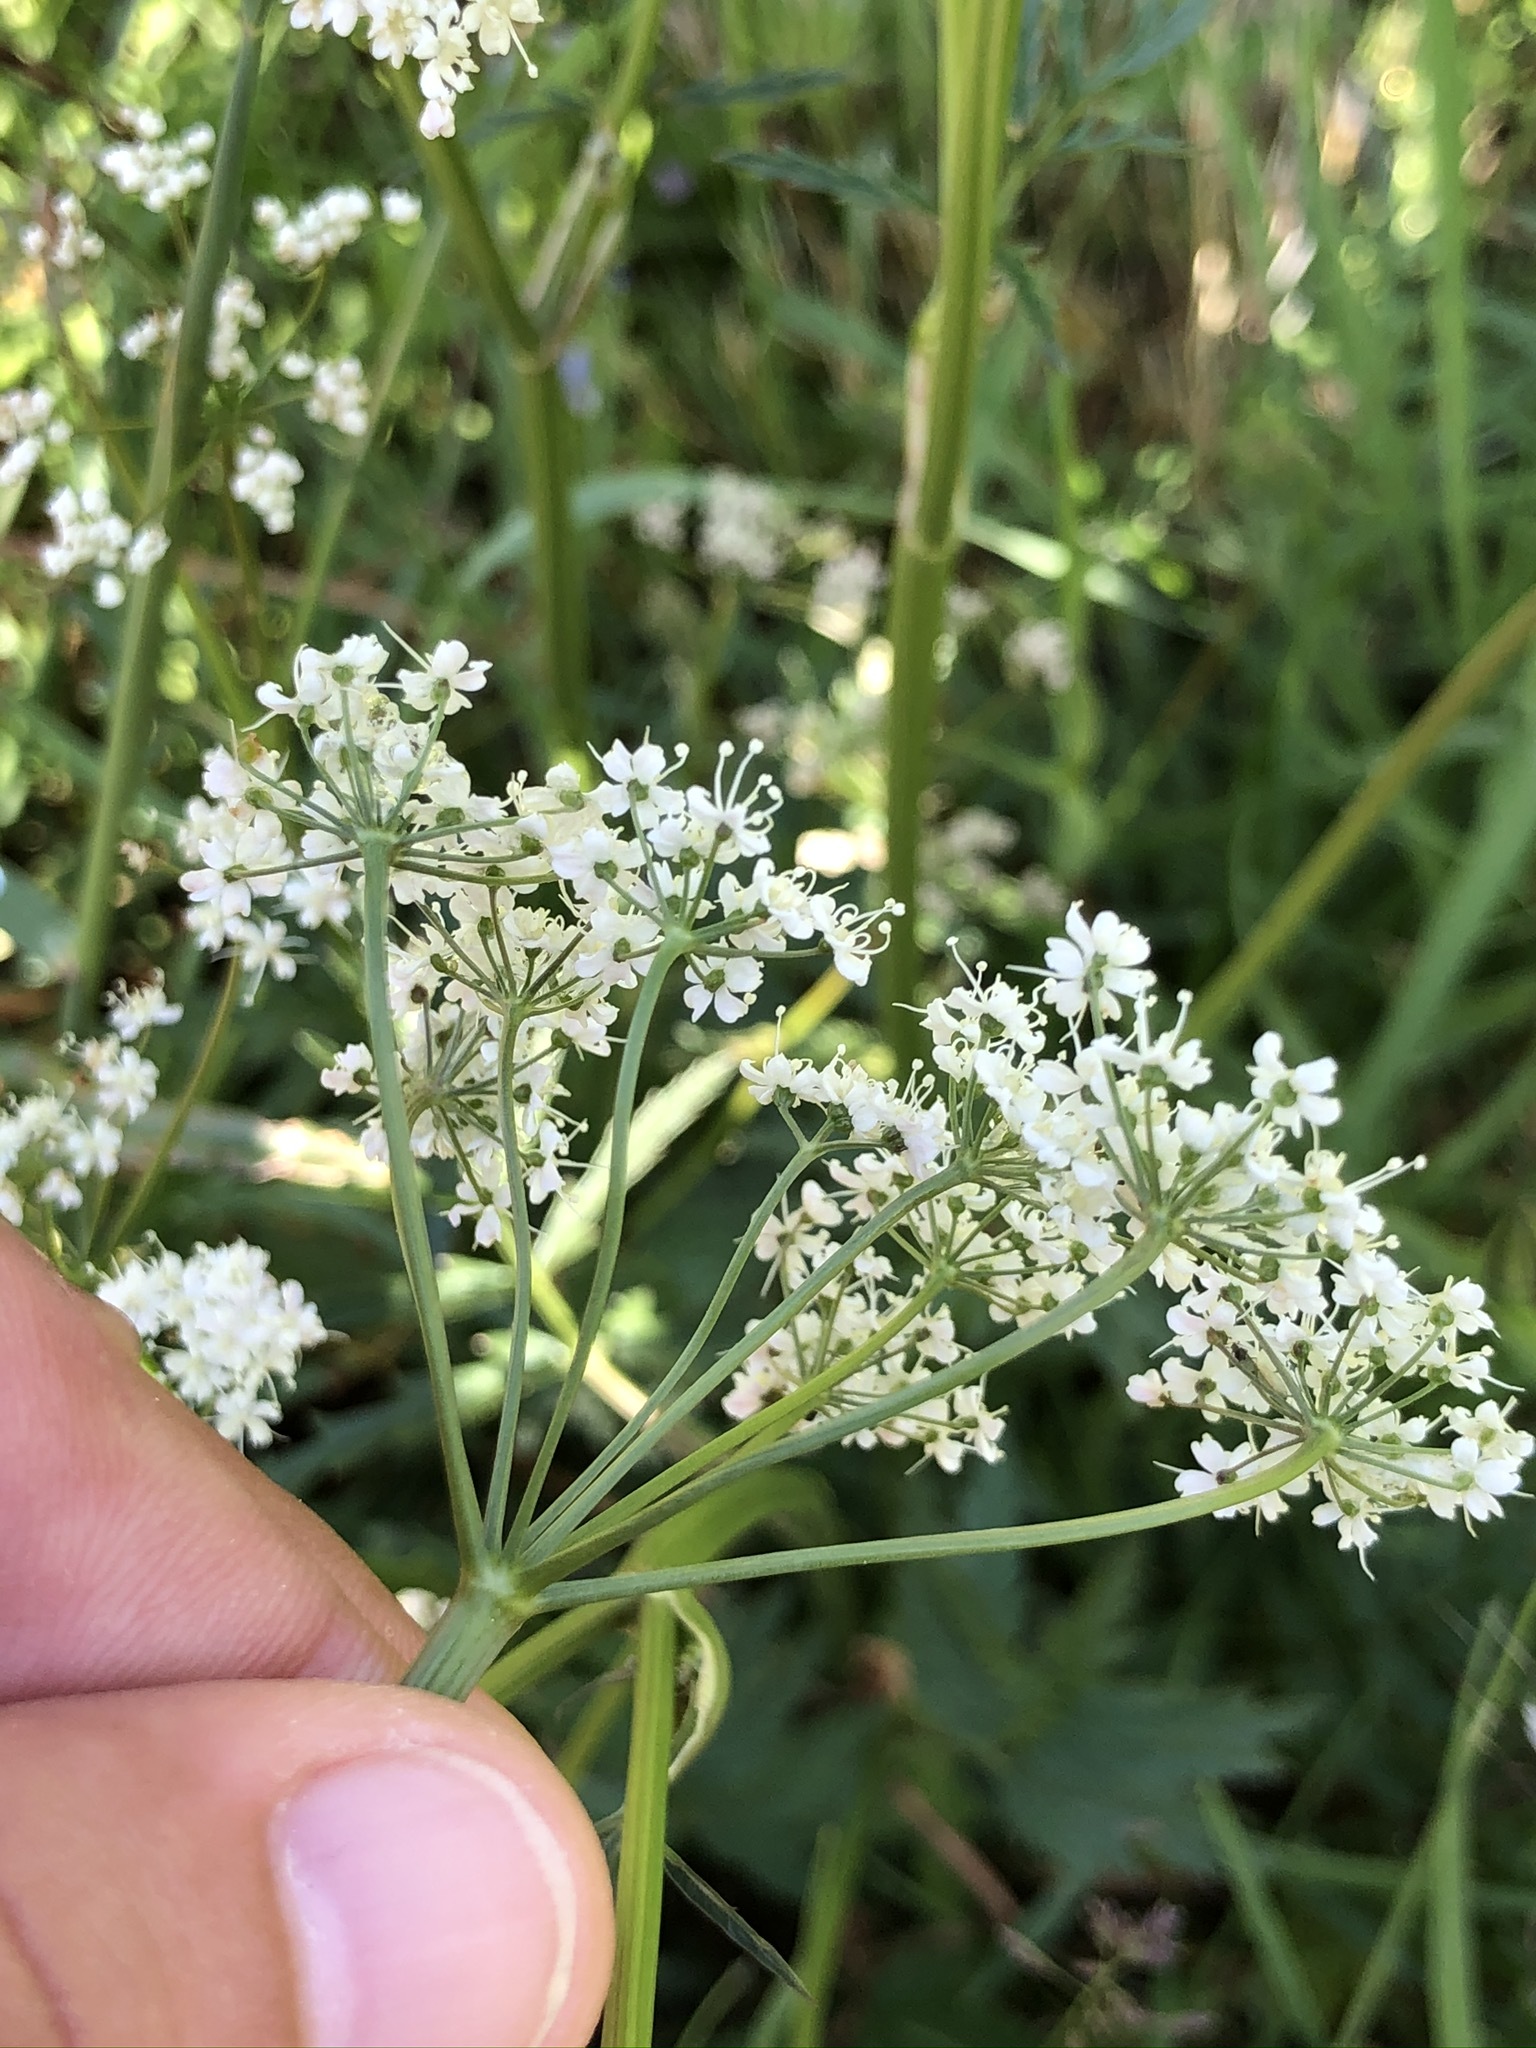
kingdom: Plantae
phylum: Tracheophyta
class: Magnoliopsida
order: Apiales
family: Apiaceae
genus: Pimpinella
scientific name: Pimpinella major
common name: Greater burnet-saxifrage
